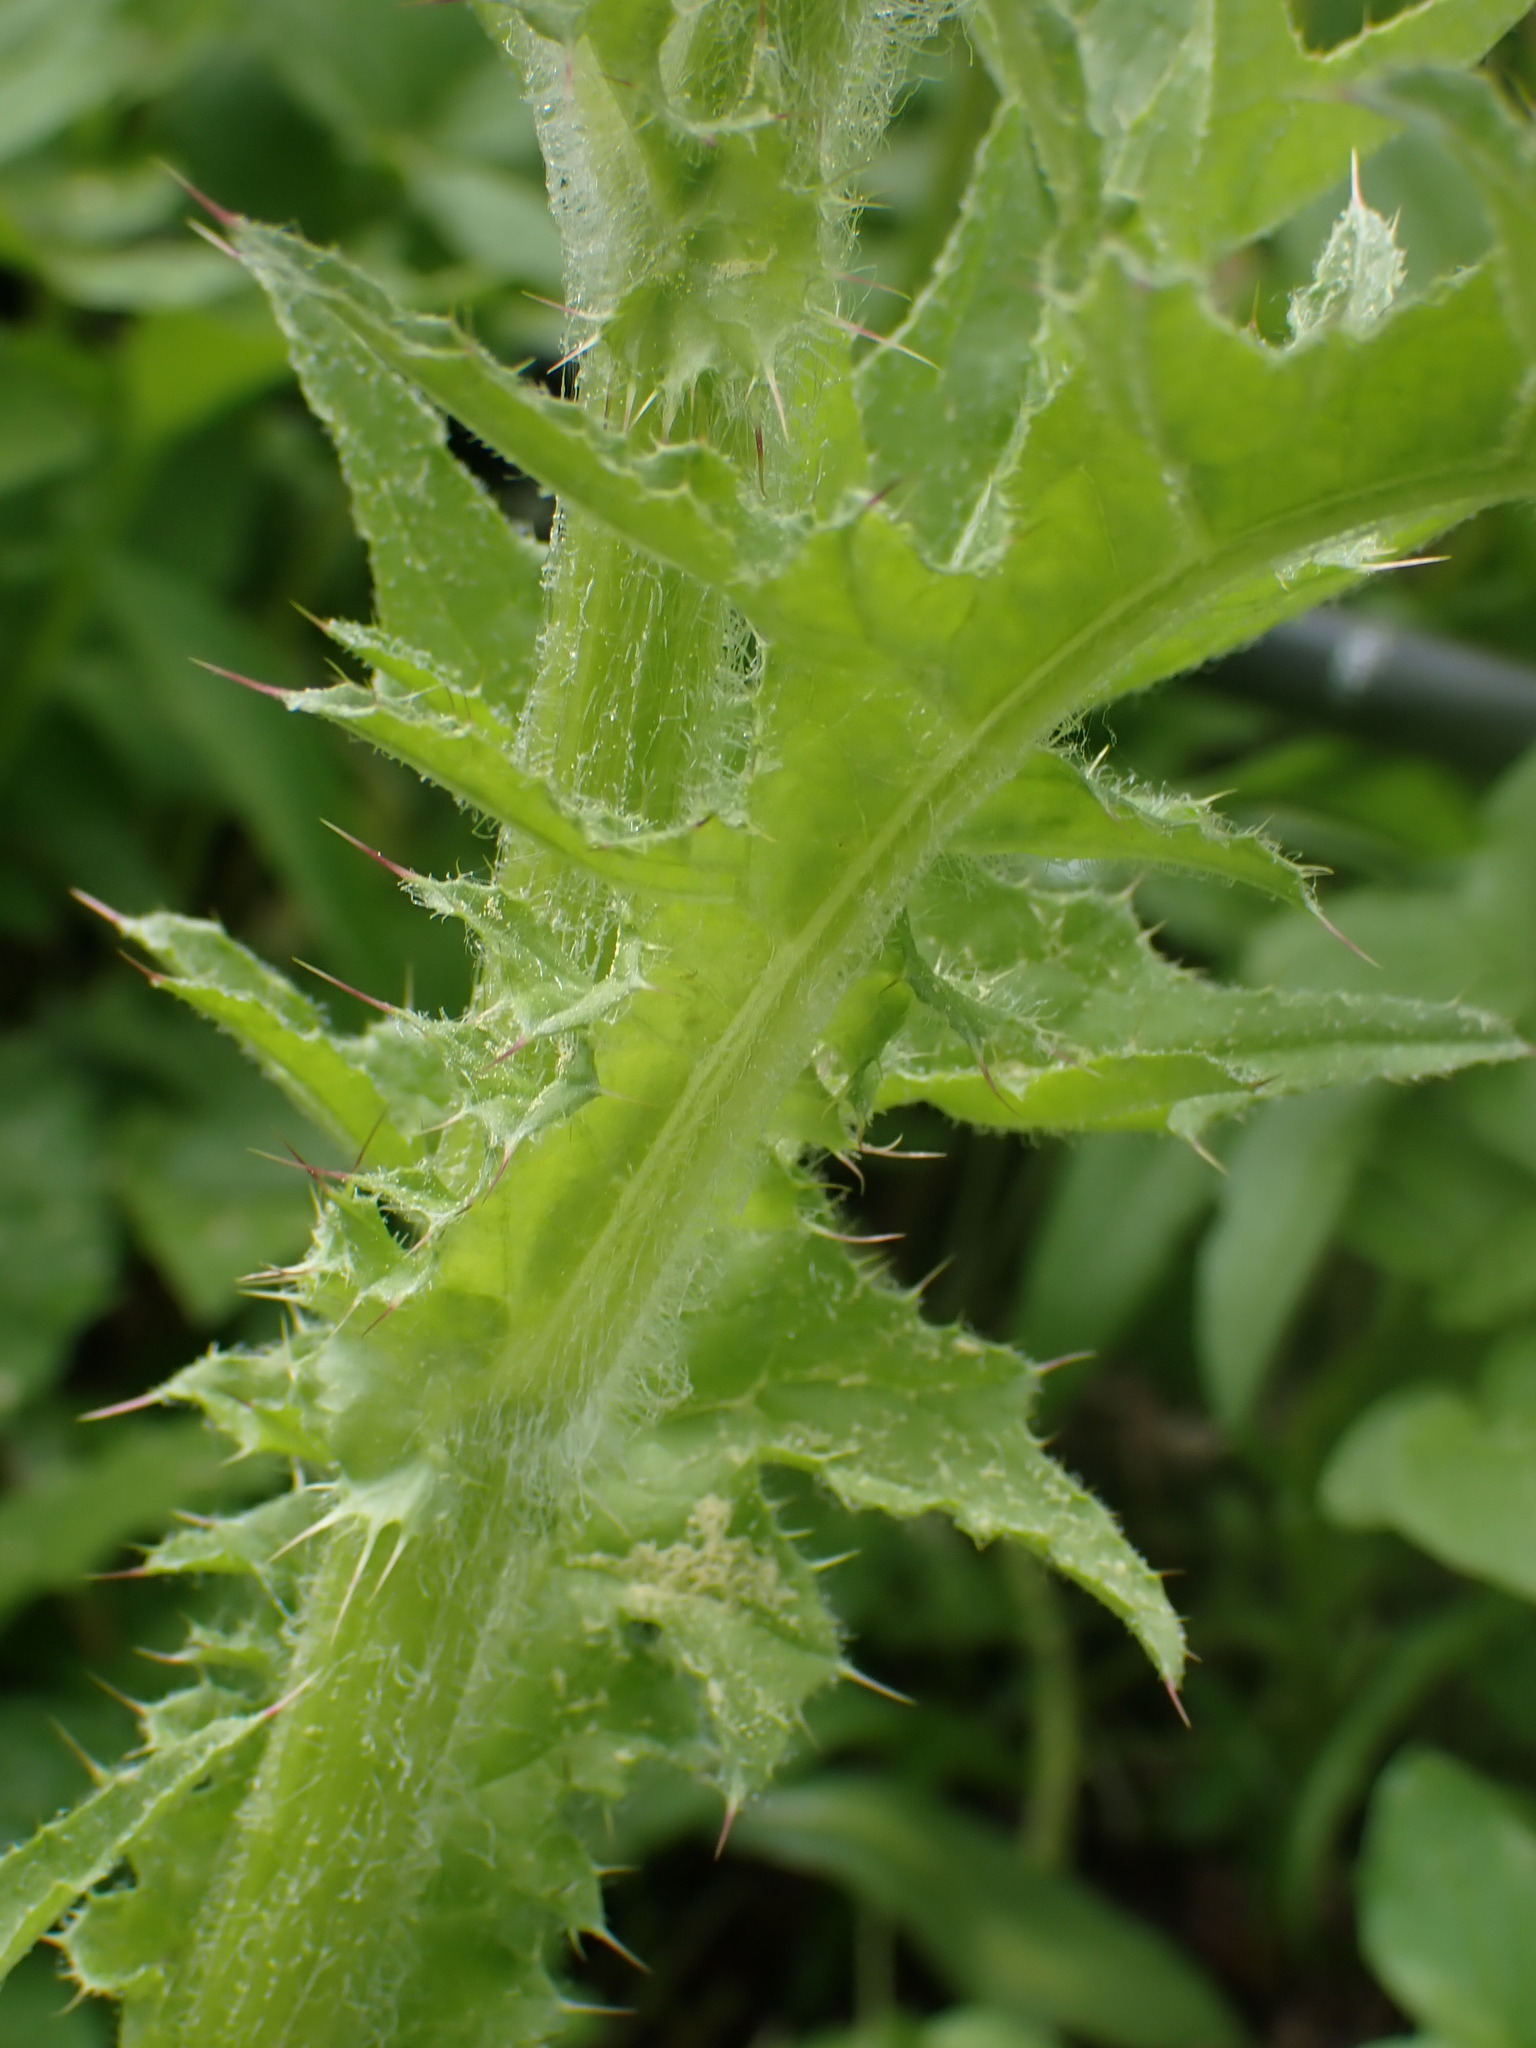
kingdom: Plantae
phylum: Tracheophyta
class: Magnoliopsida
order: Asterales
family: Asteraceae
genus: Cirsium
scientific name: Cirsium edule
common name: Indian thistle
